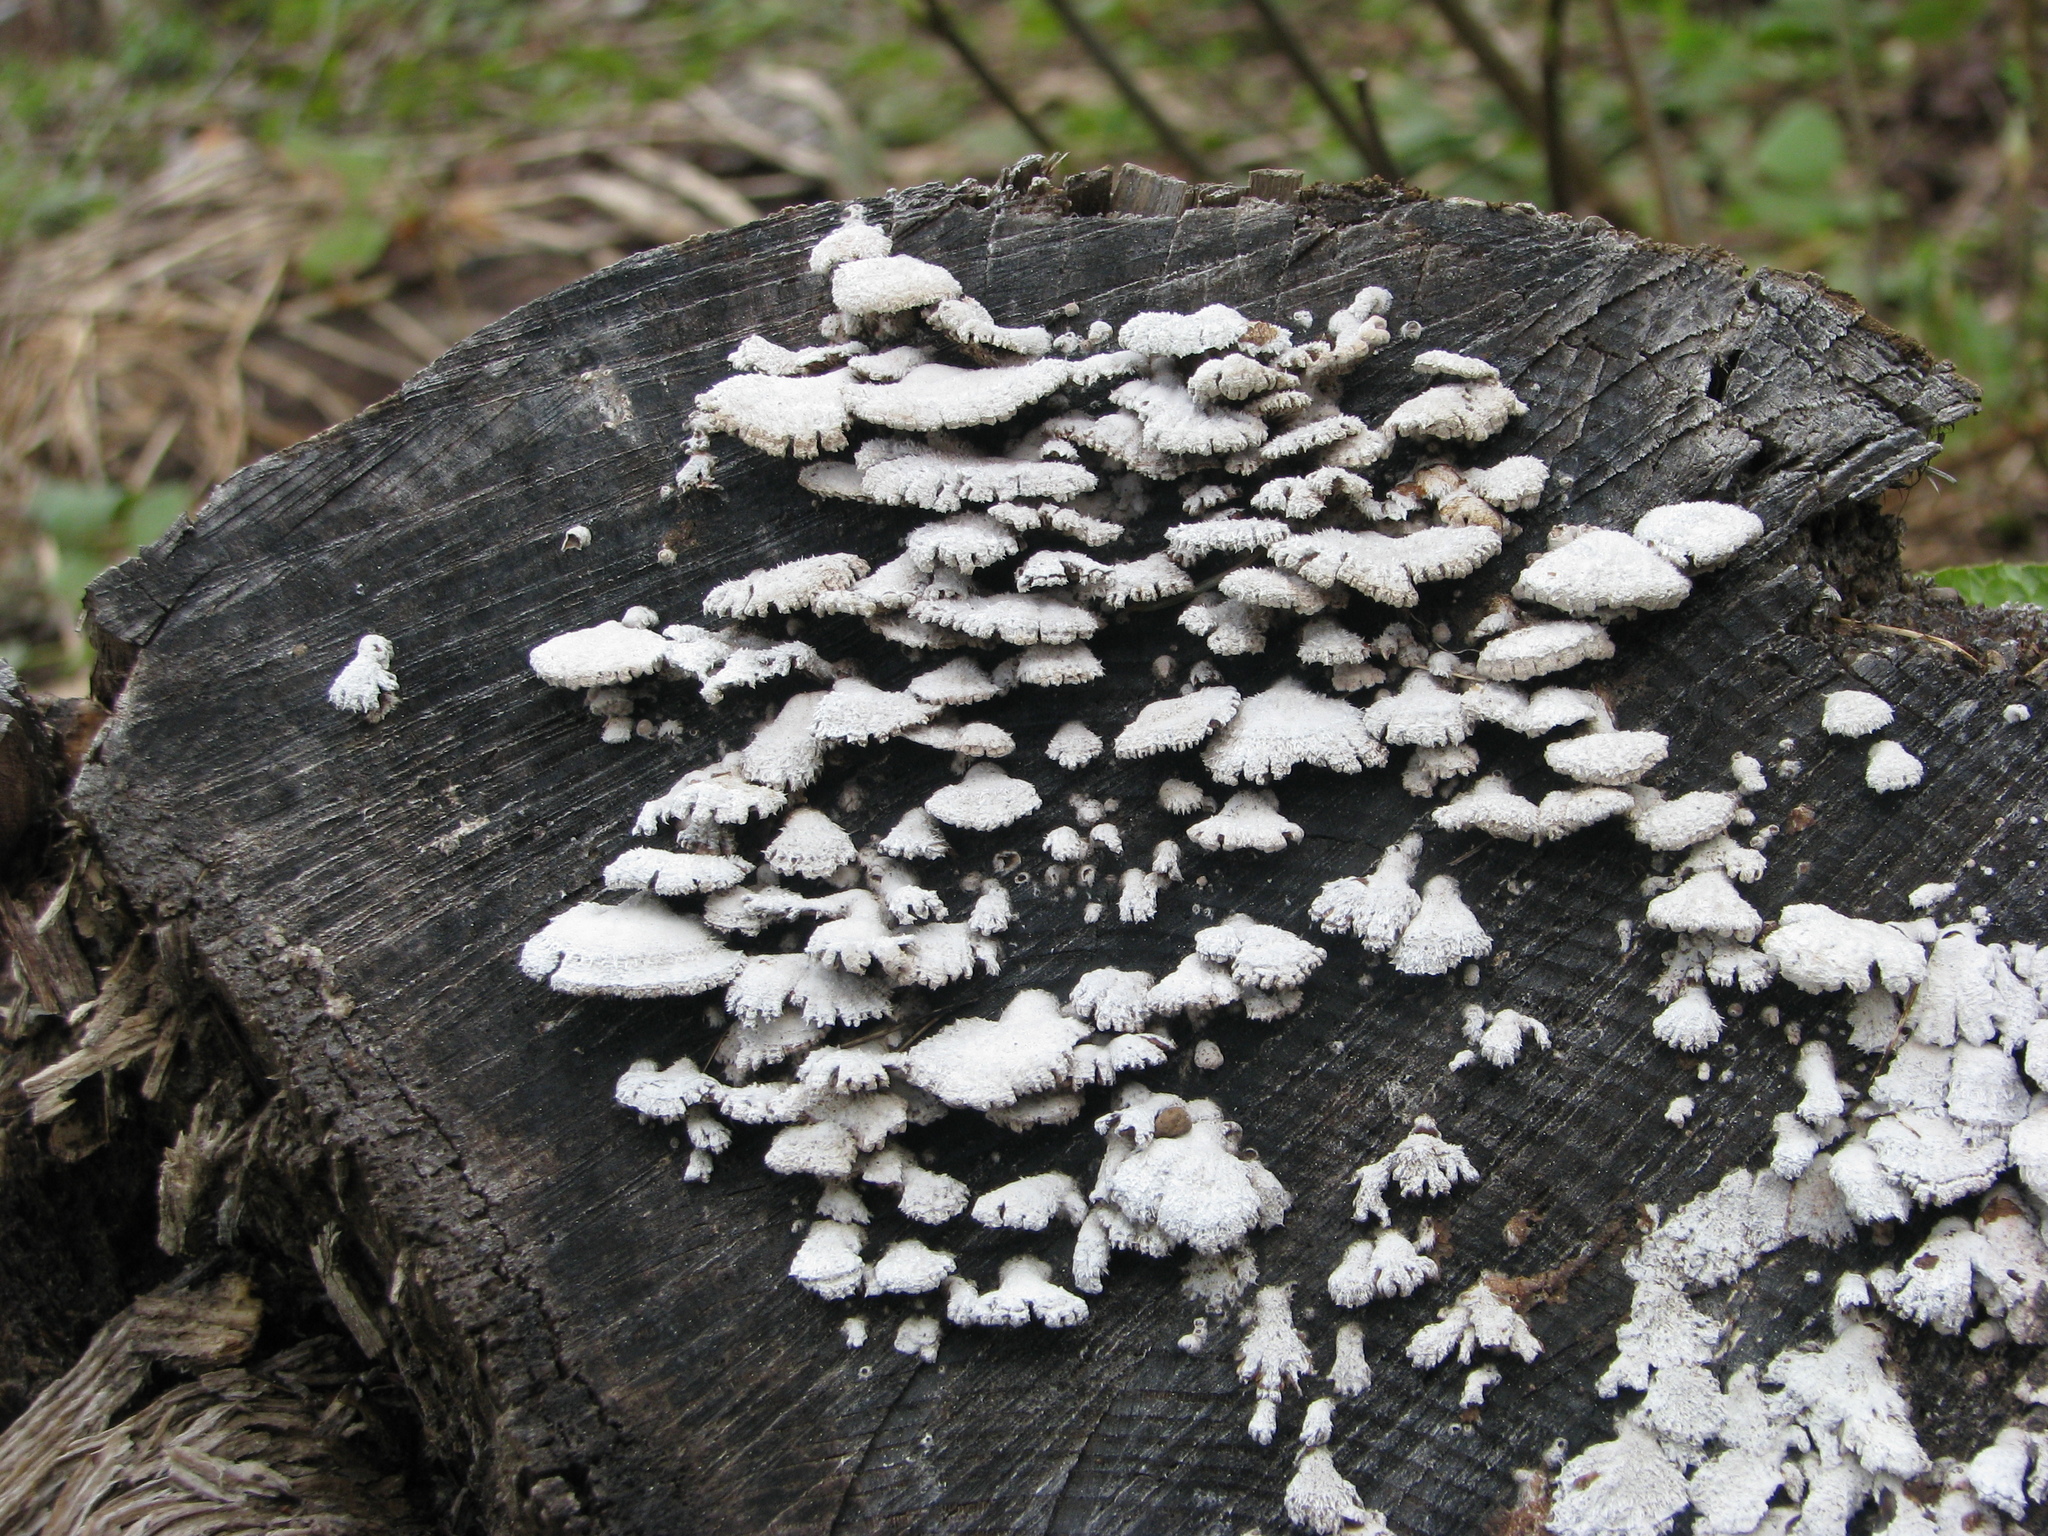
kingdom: Fungi
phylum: Basidiomycota
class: Agaricomycetes
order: Agaricales
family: Schizophyllaceae
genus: Schizophyllum
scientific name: Schizophyllum commune
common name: Common porecrust
